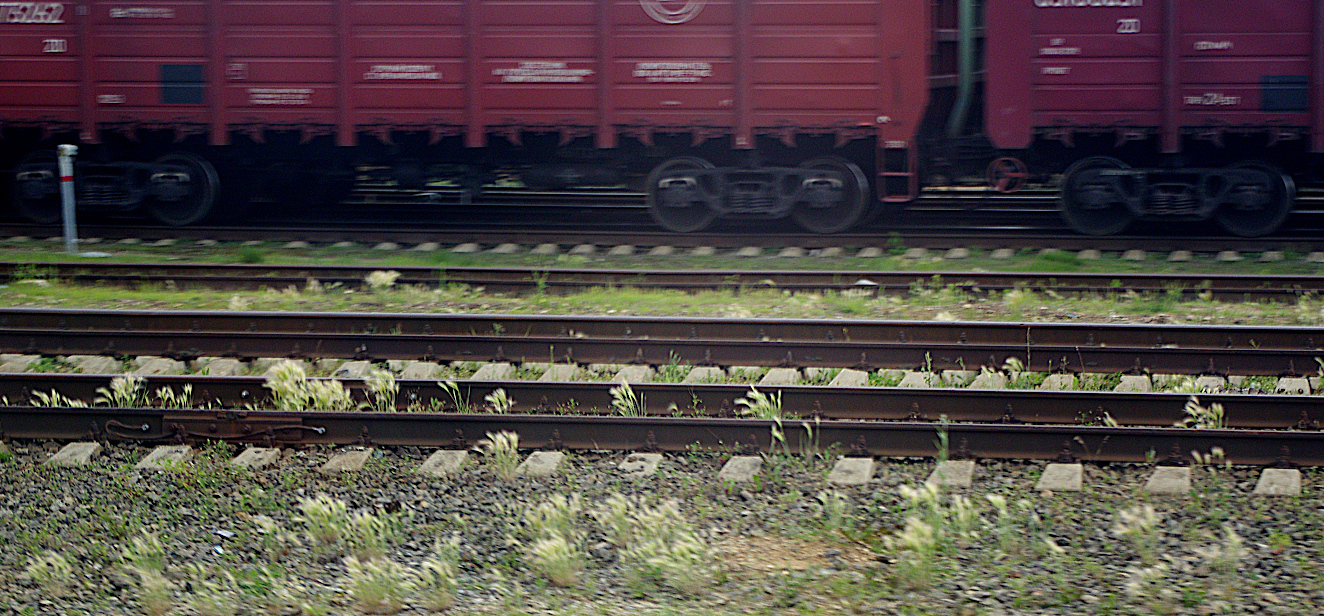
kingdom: Plantae
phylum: Tracheophyta
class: Liliopsida
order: Poales
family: Poaceae
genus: Hordeum
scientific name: Hordeum jubatum
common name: Foxtail barley
